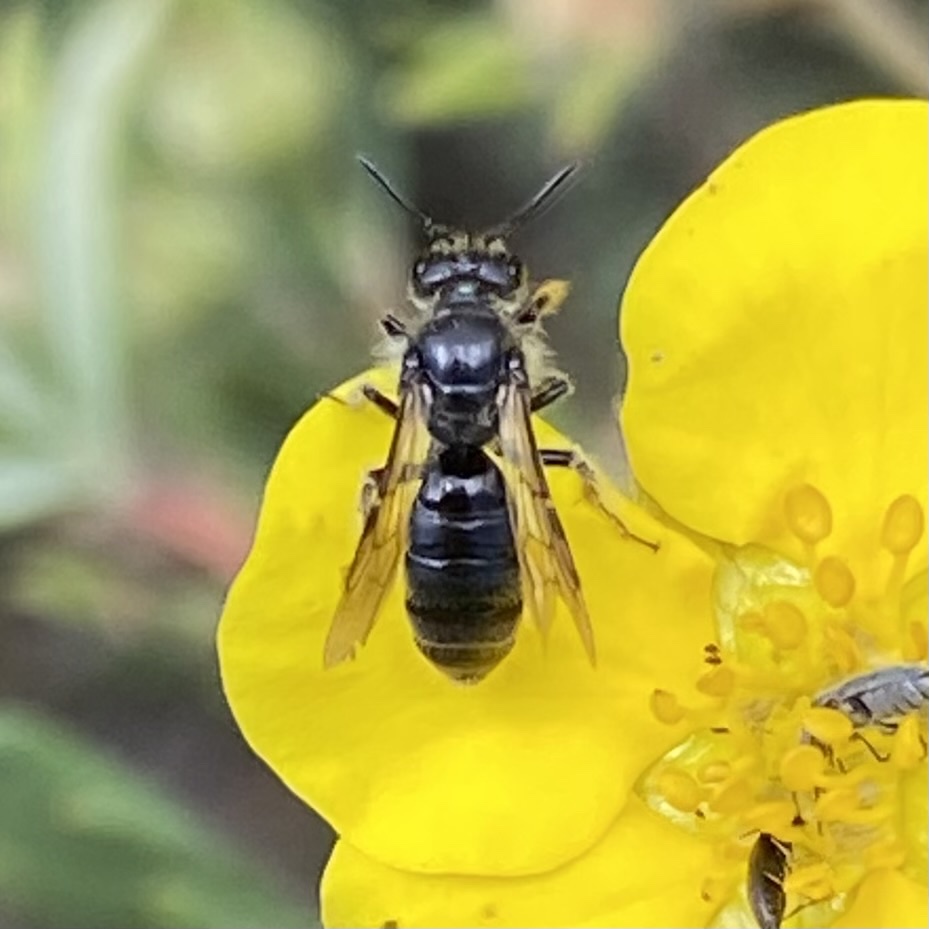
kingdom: Animalia
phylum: Arthropoda
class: Insecta
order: Hymenoptera
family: Andrenidae
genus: Panurginus
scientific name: Panurginus
